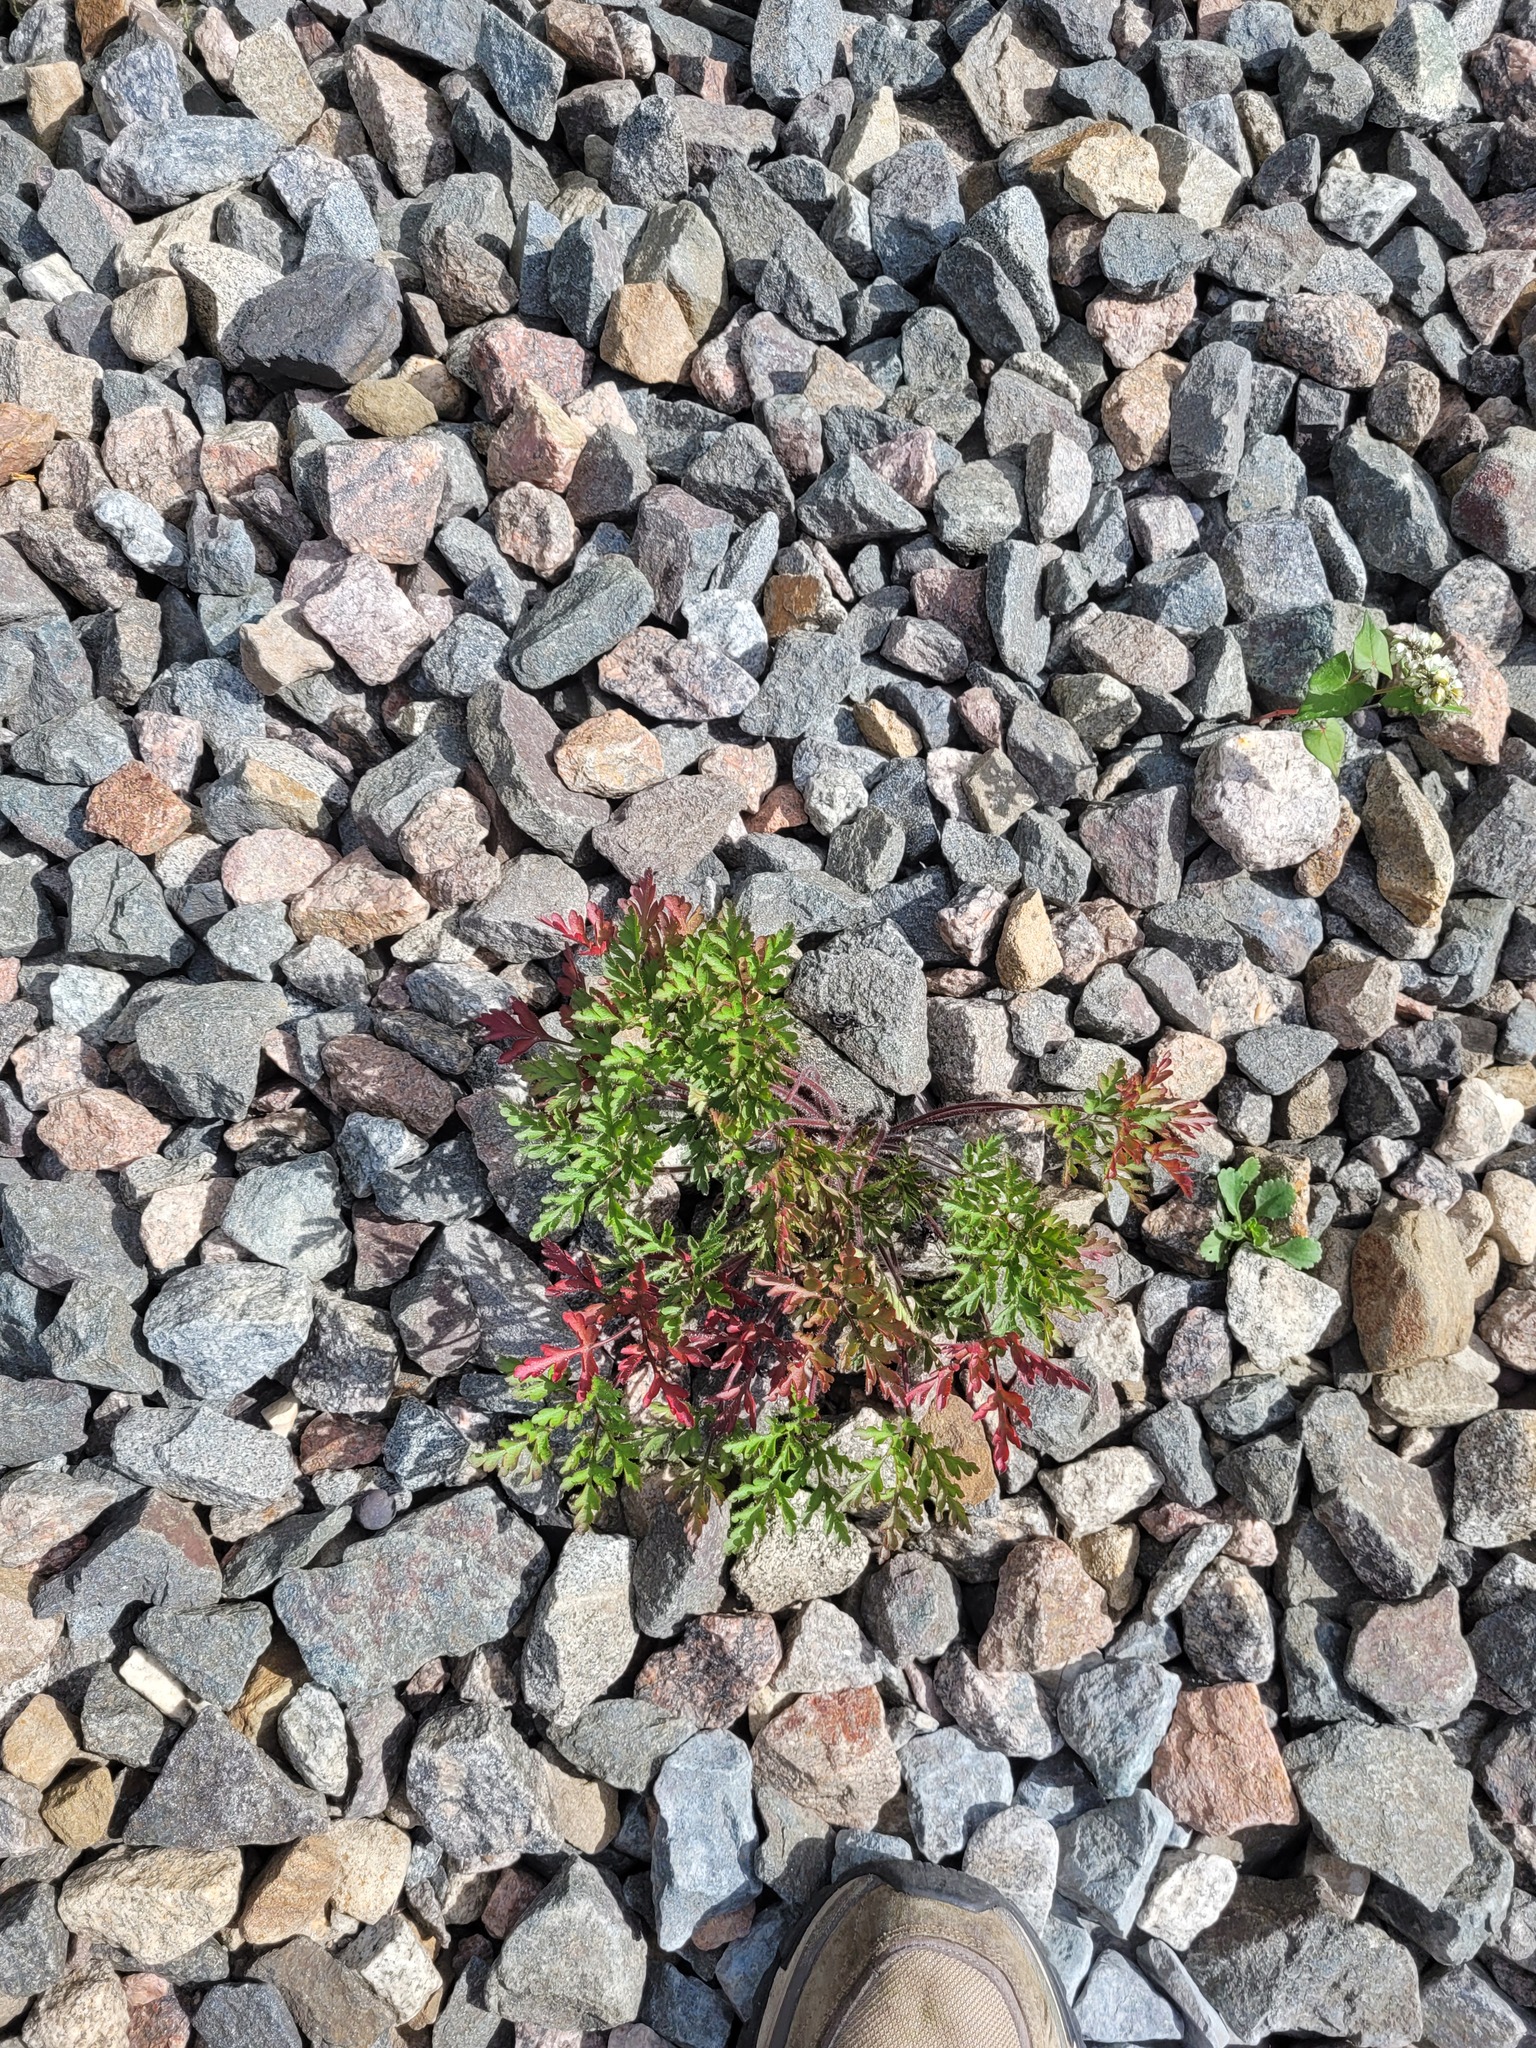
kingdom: Plantae
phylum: Tracheophyta
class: Magnoliopsida
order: Geraniales
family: Geraniaceae
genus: Geranium
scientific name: Geranium robertianum
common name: Herb-robert
